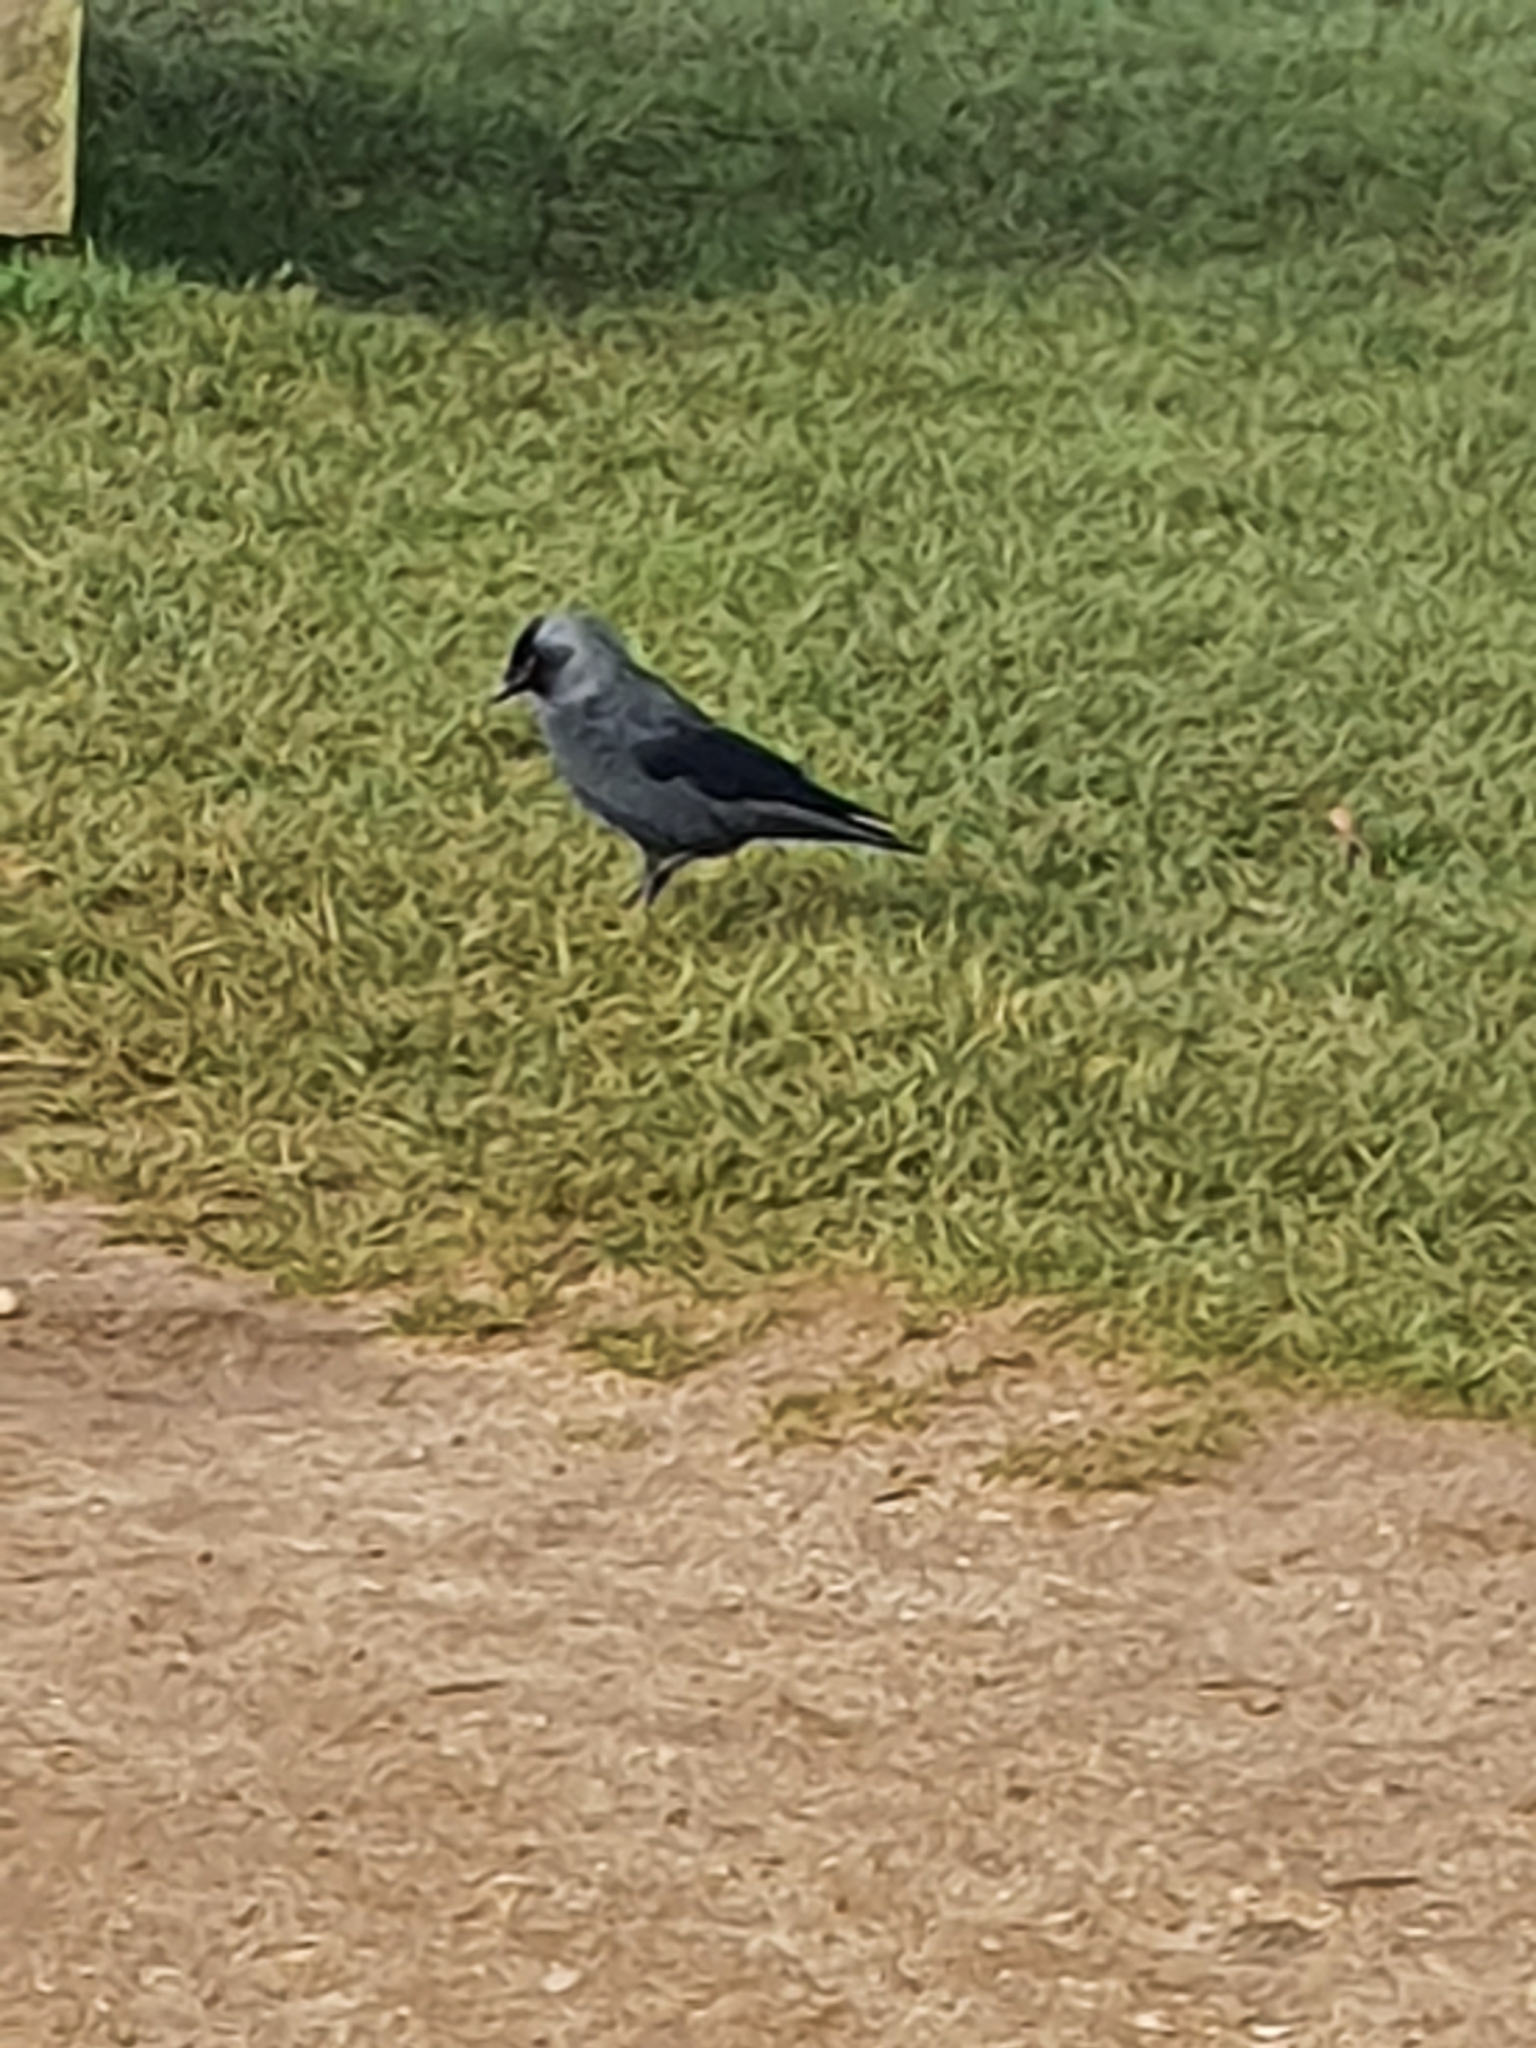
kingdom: Animalia
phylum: Chordata
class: Aves
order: Passeriformes
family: Corvidae
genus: Coloeus
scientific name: Coloeus monedula
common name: Western jackdaw
